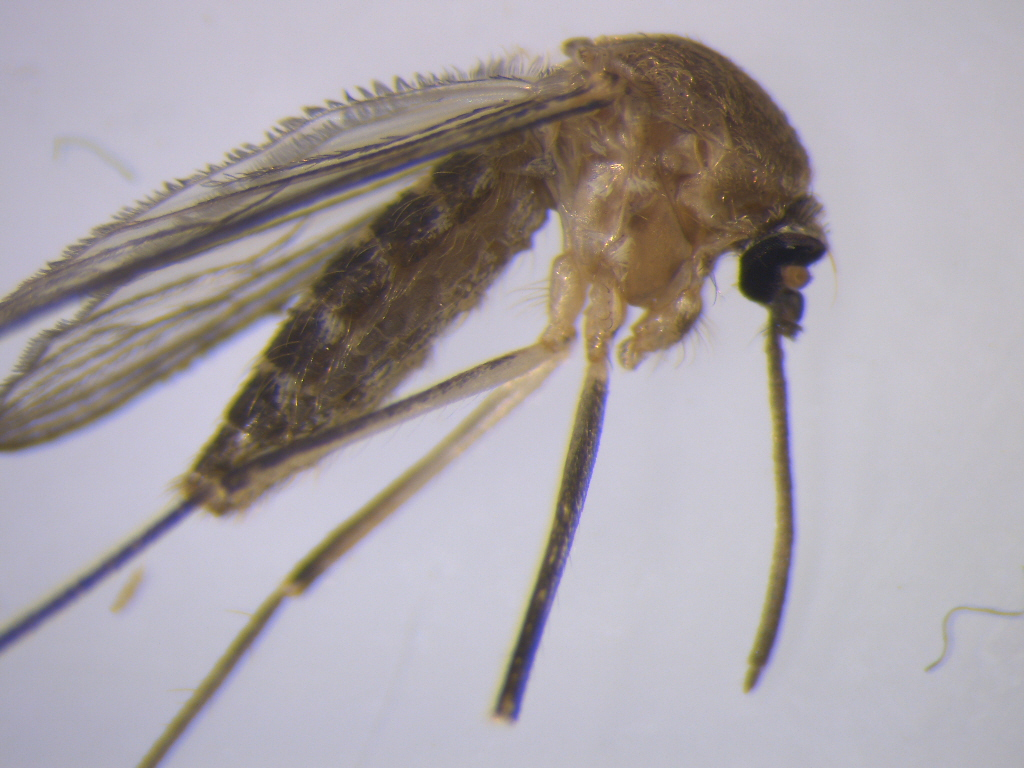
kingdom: Animalia
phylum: Arthropoda
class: Insecta
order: Diptera
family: Culicidae
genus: Culex
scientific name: Culex pervigilans
